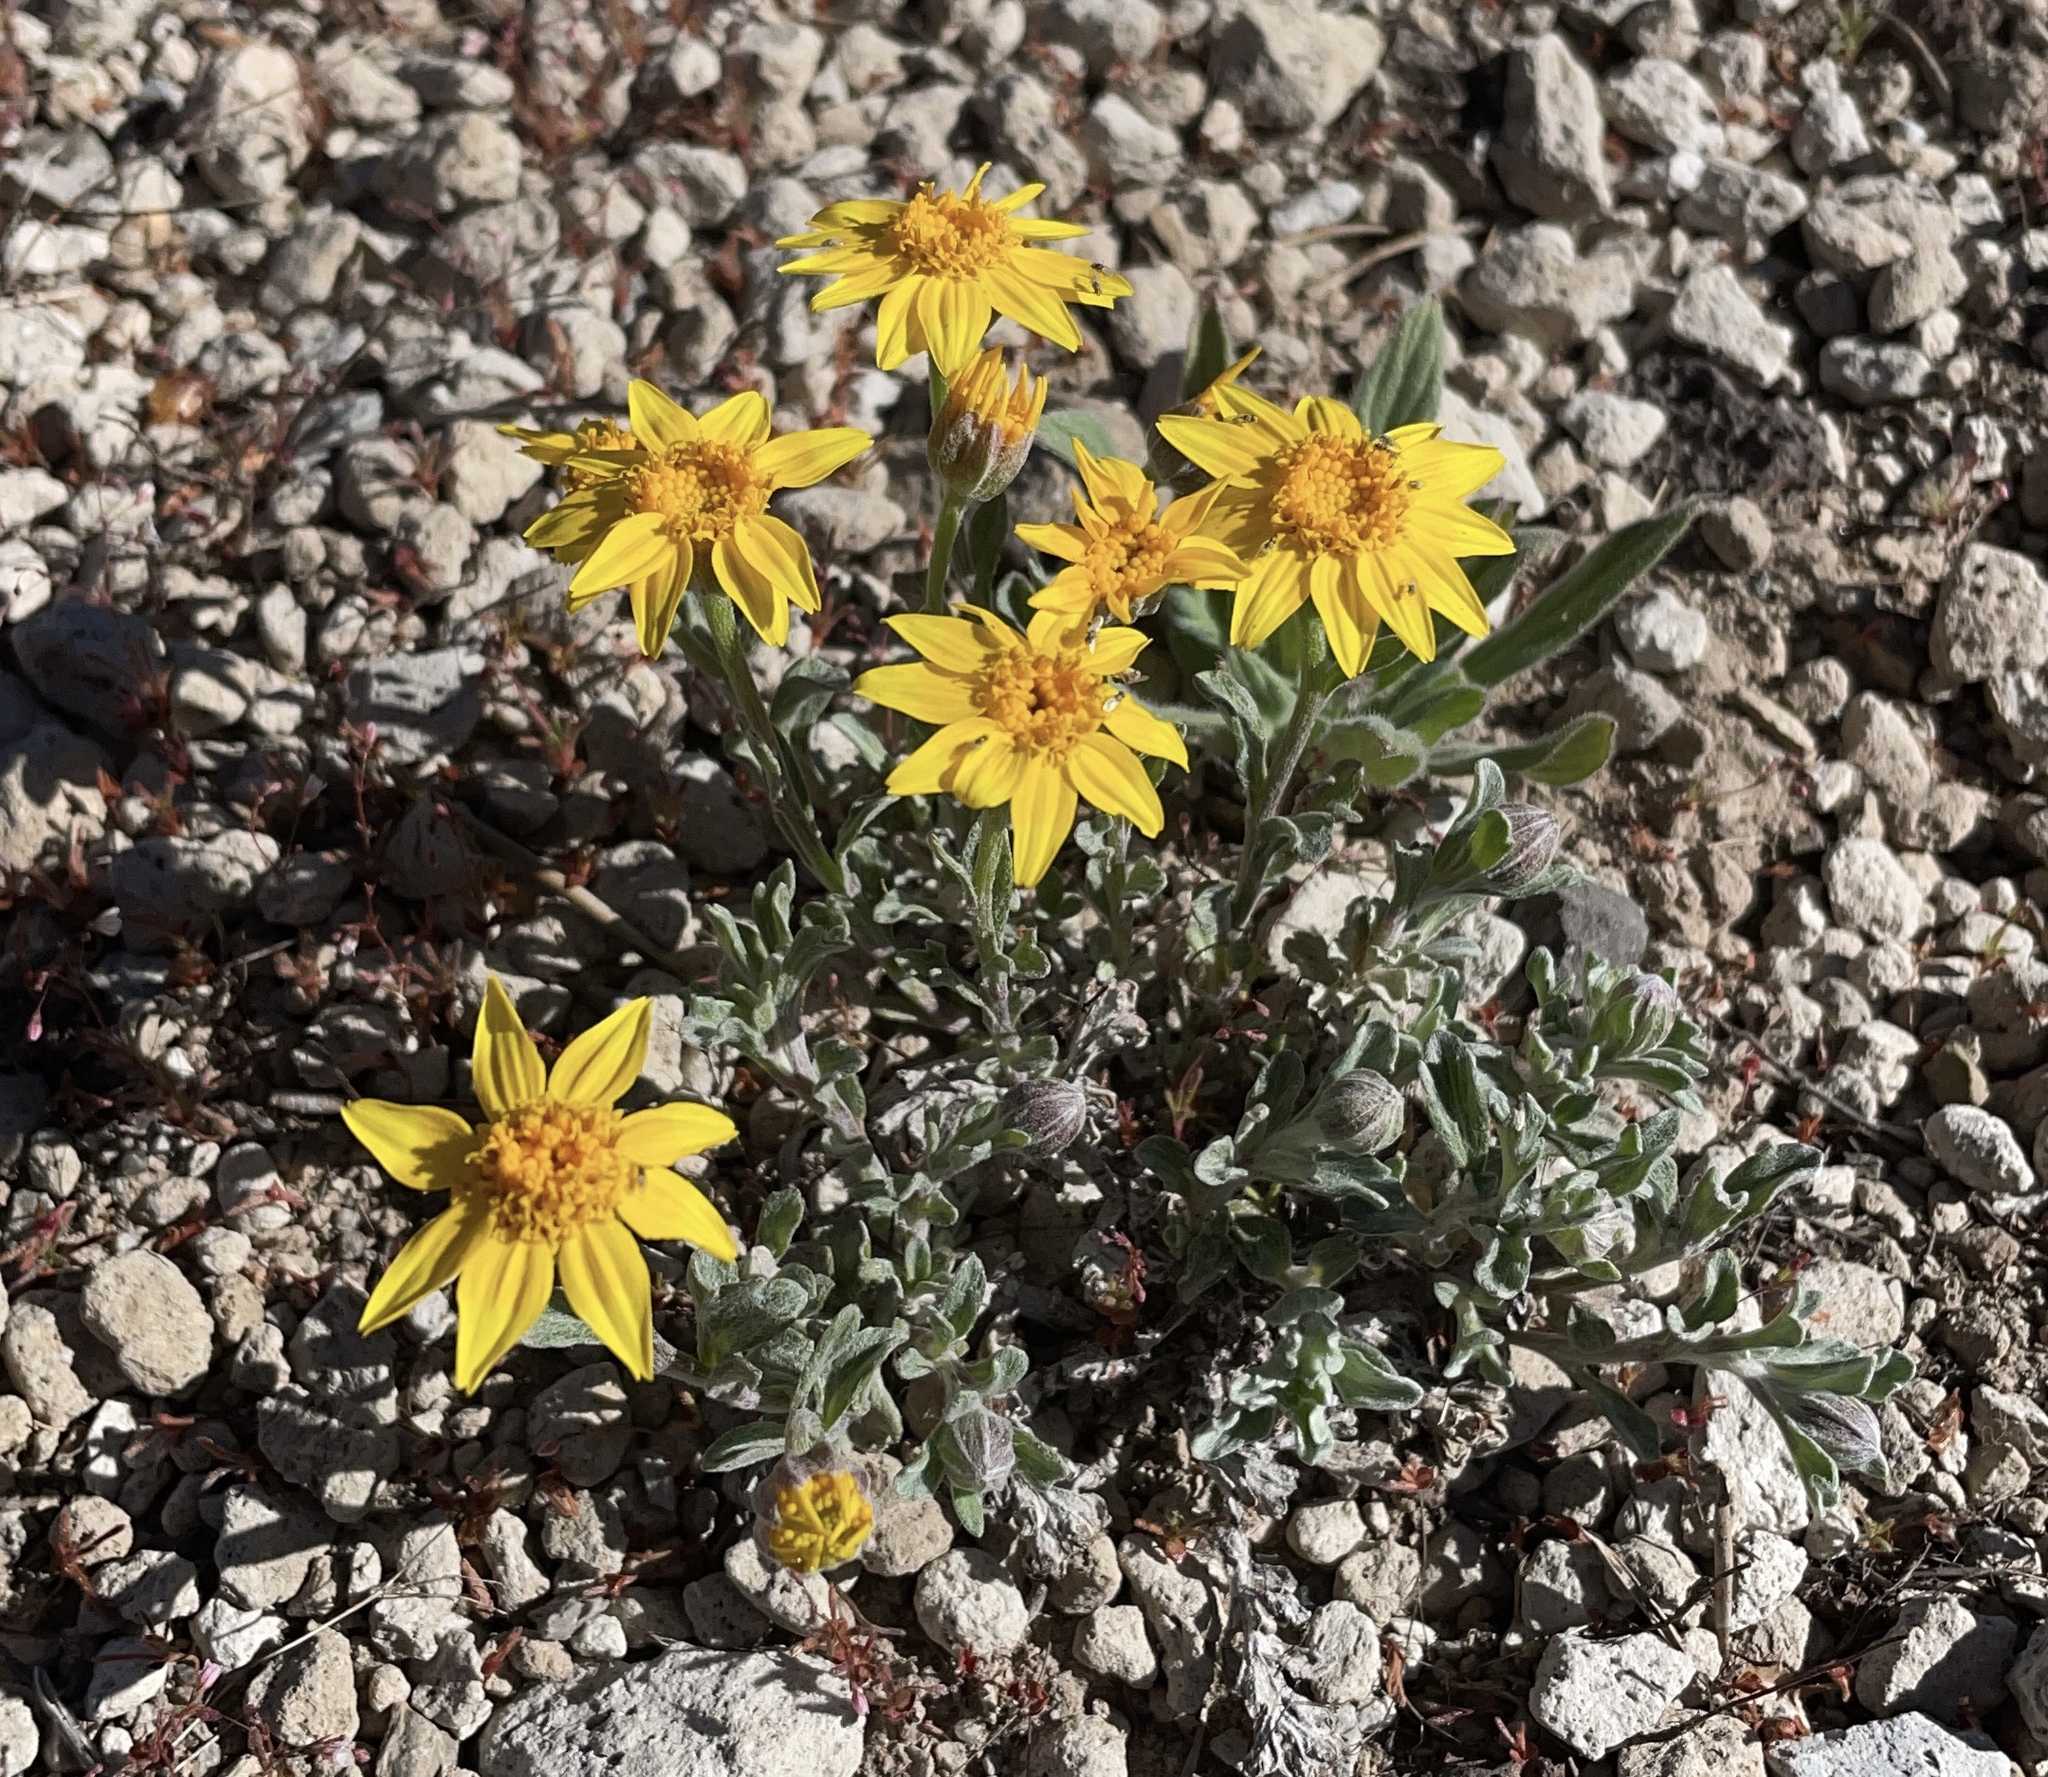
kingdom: Plantae
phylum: Tracheophyta
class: Magnoliopsida
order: Asterales
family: Asteraceae
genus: Eriophyllum
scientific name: Eriophyllum lanatum
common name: Common woolly-sunflower
